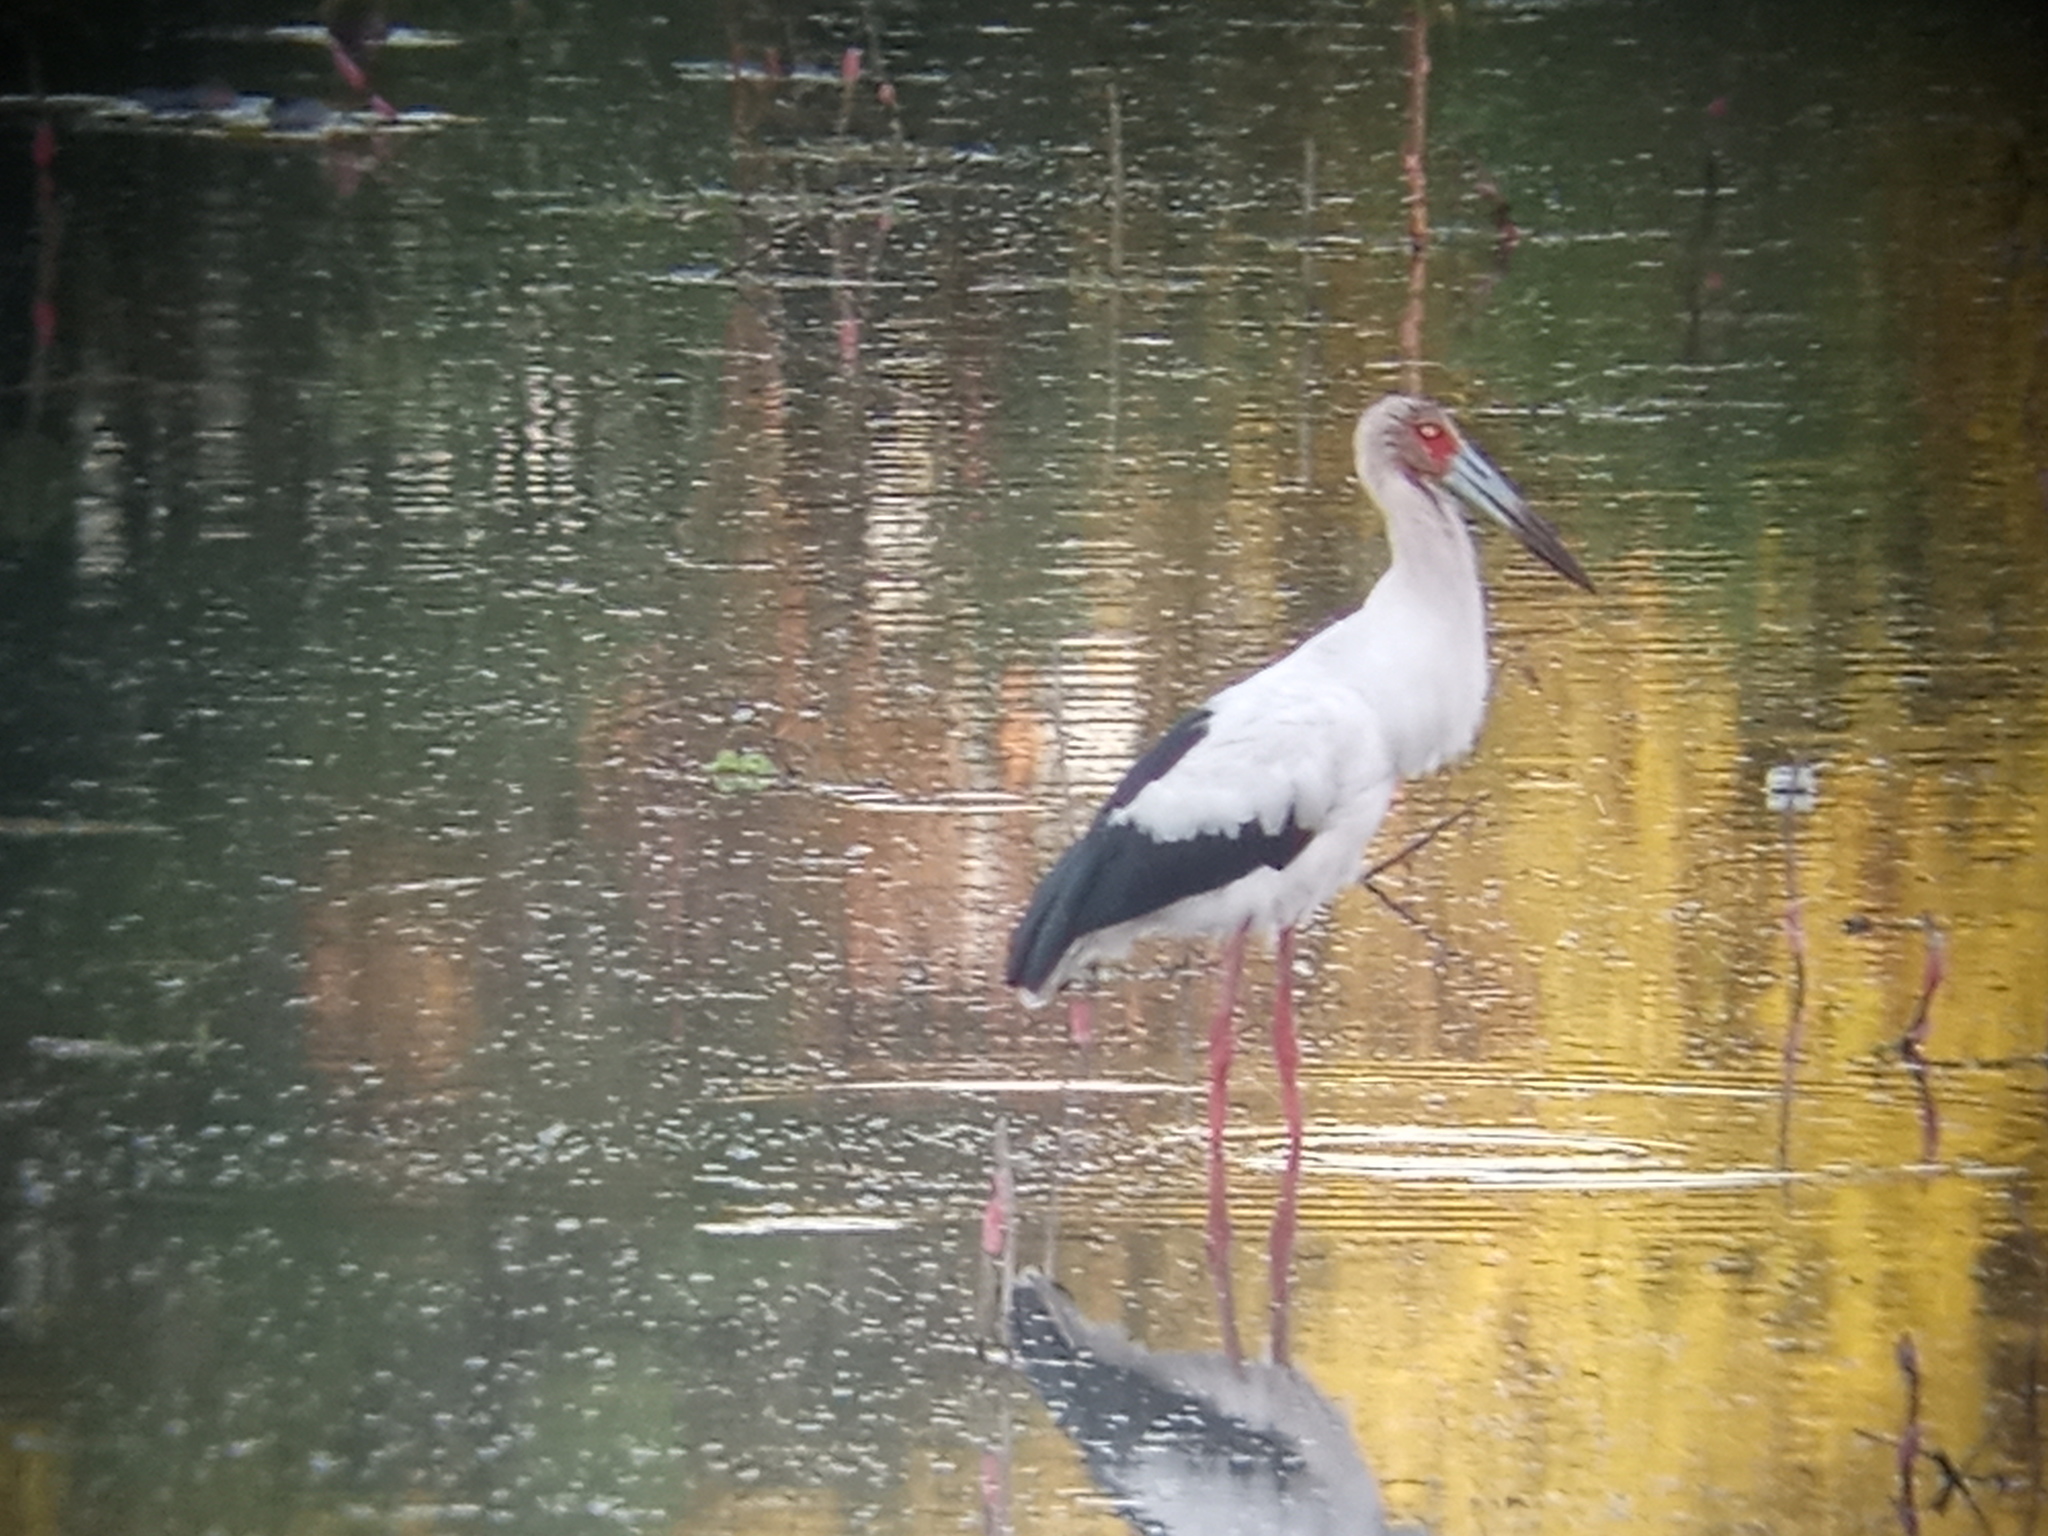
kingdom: Animalia
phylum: Chordata
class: Aves
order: Ciconiiformes
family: Ciconiidae
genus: Ciconia
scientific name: Ciconia maguari
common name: Maguari stork
